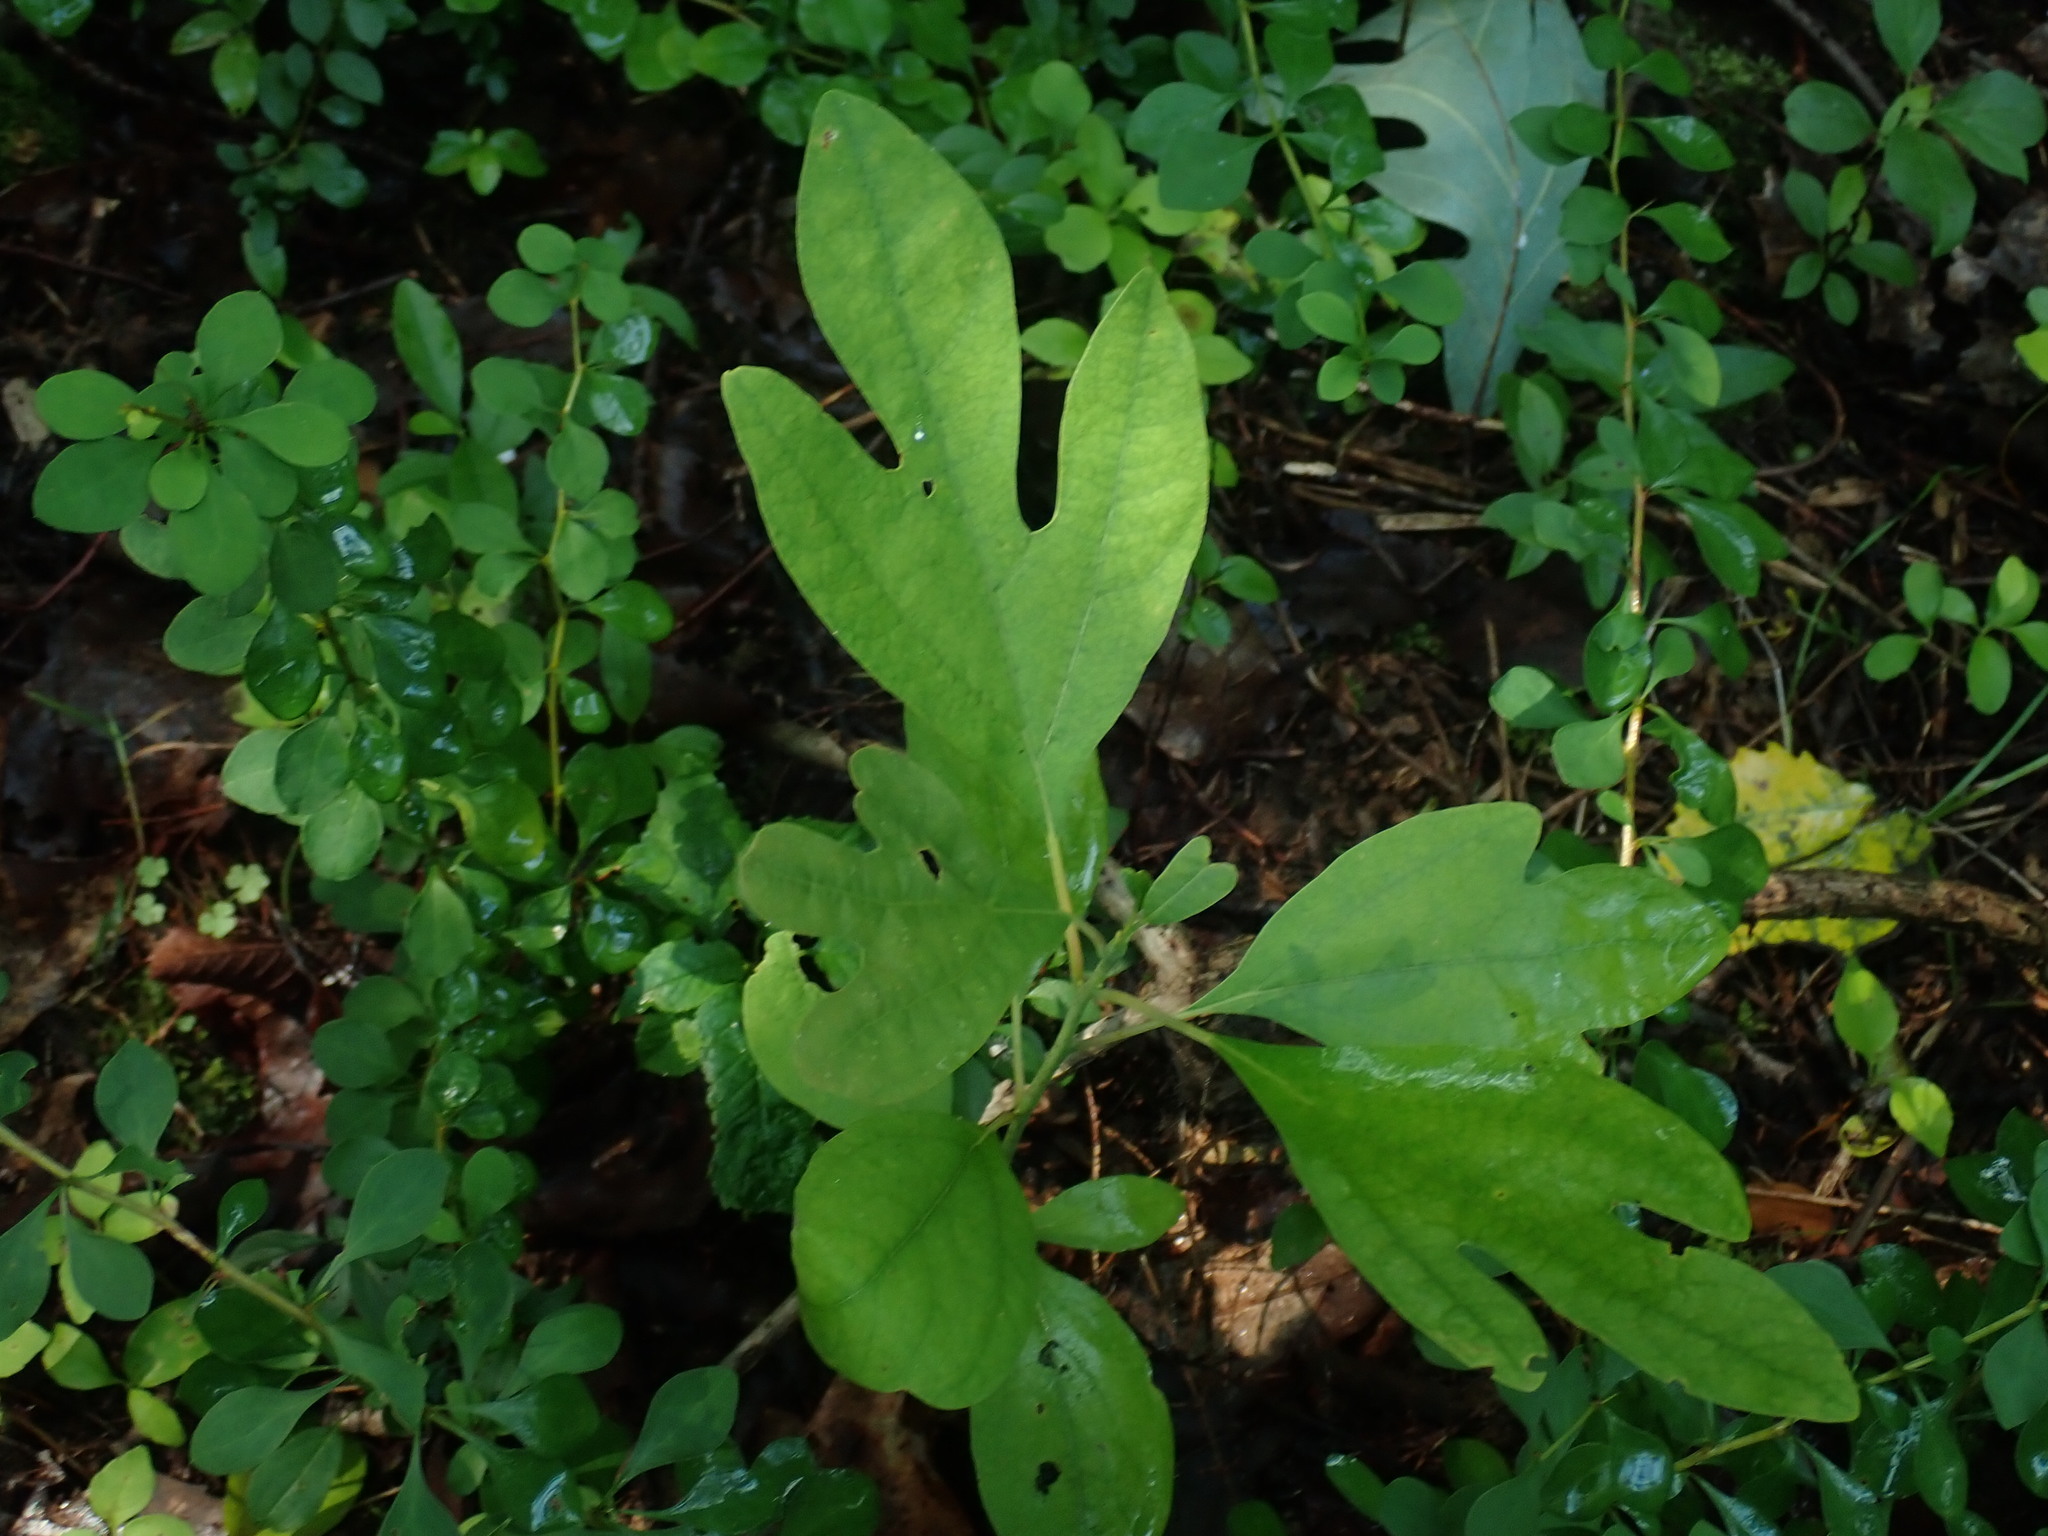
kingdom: Plantae
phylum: Tracheophyta
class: Magnoliopsida
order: Laurales
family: Lauraceae
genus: Sassafras
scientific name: Sassafras albidum
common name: Sassafras
